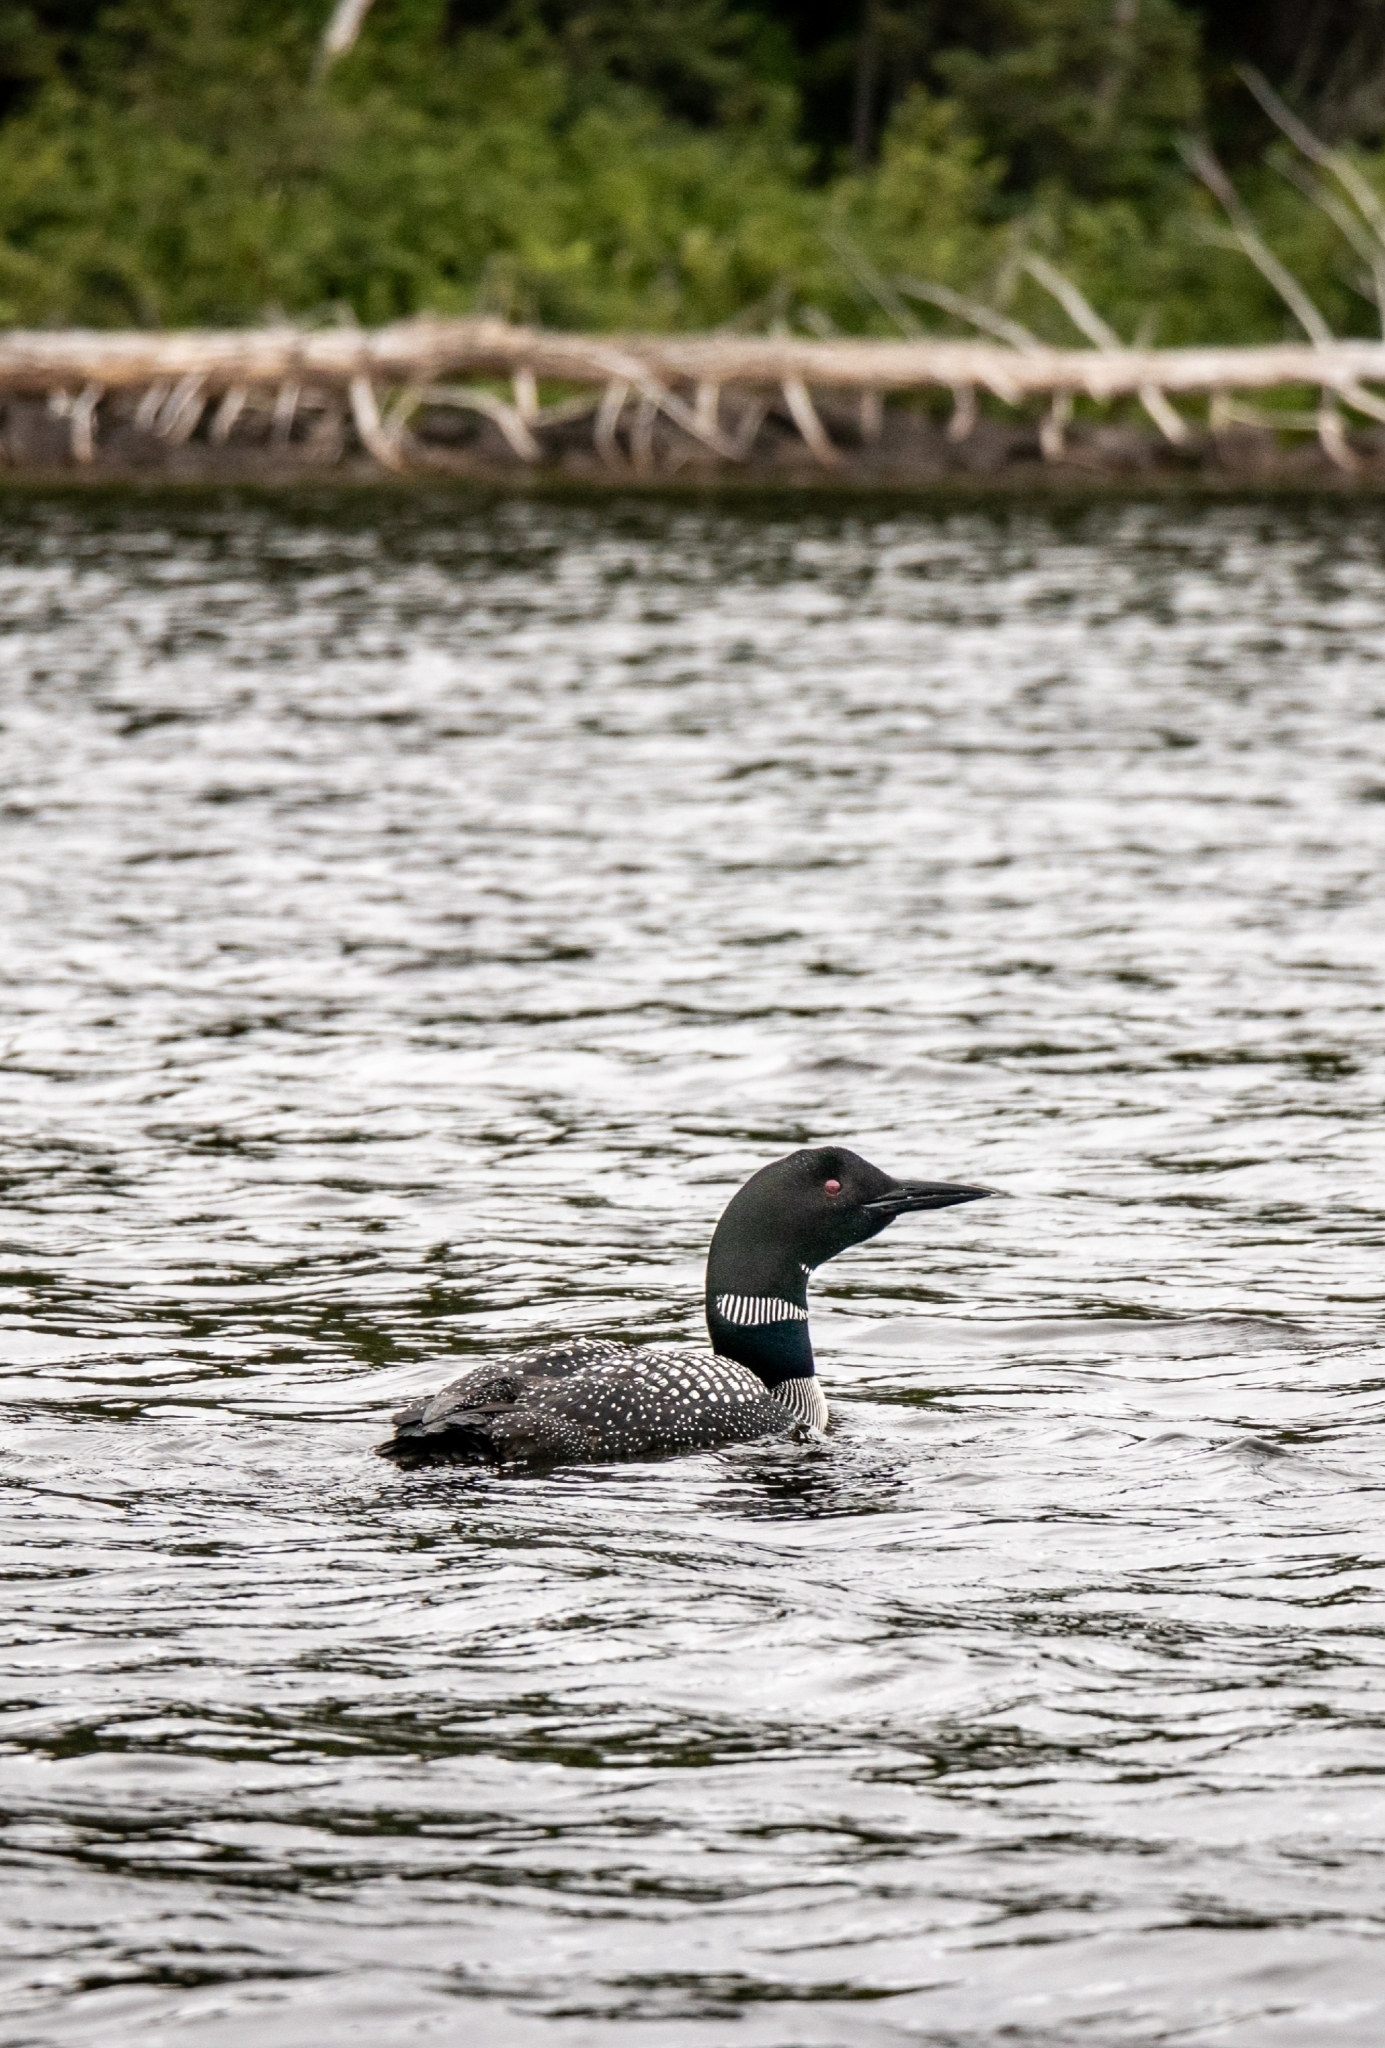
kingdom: Animalia
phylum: Chordata
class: Aves
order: Gaviiformes
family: Gaviidae
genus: Gavia
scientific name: Gavia immer
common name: Common loon
